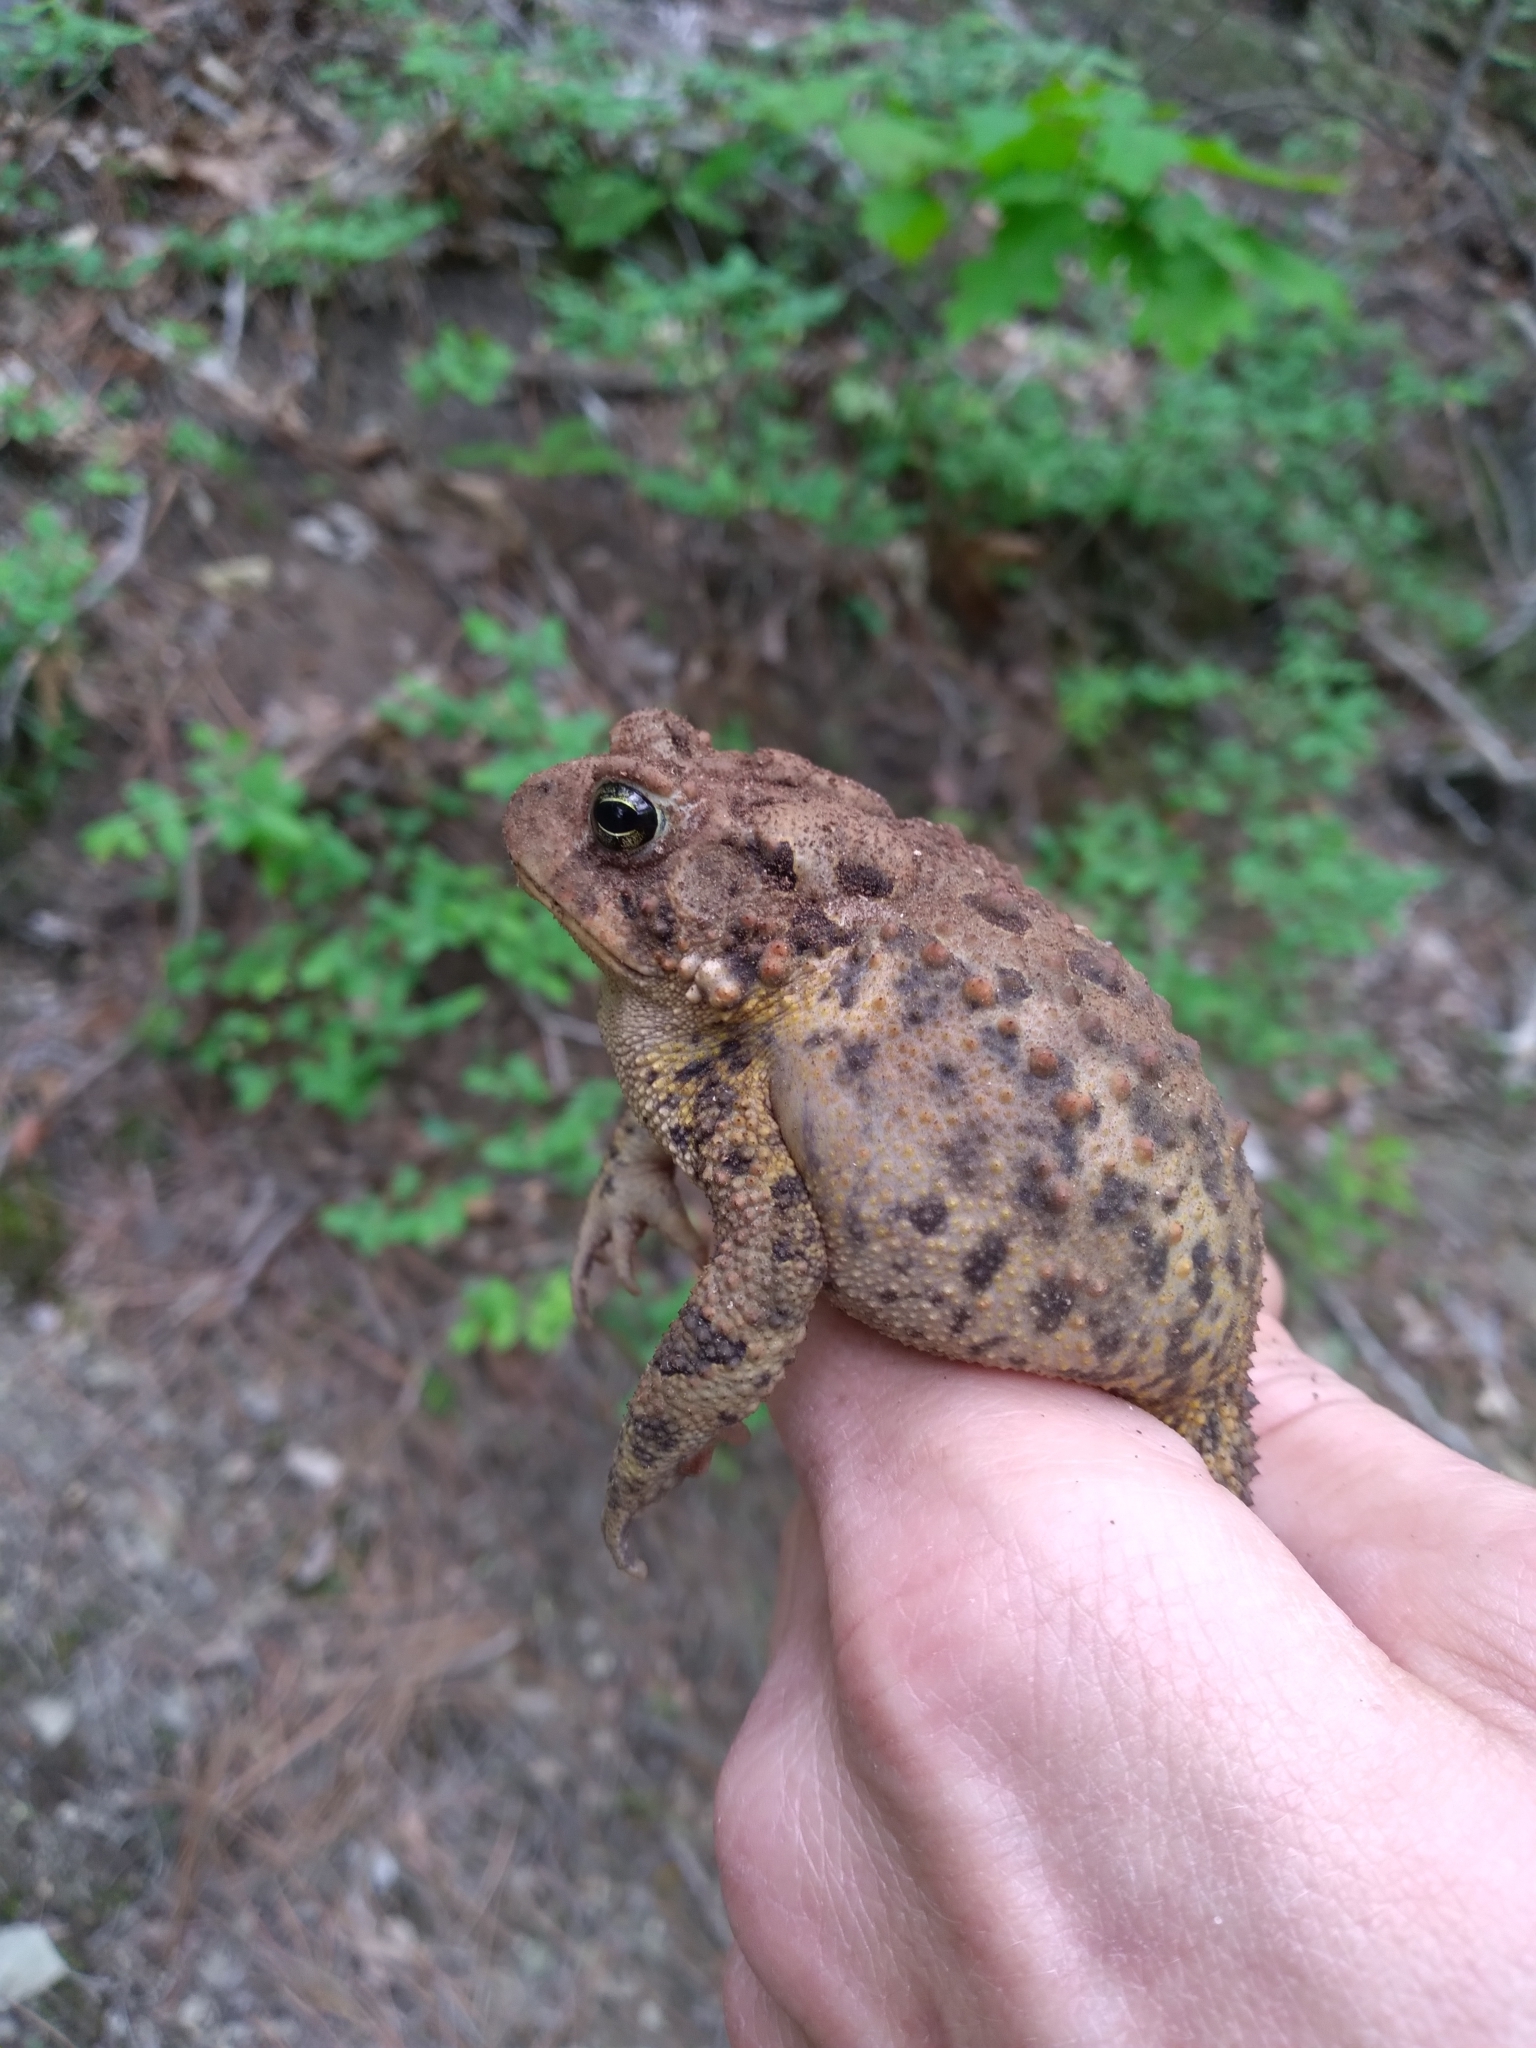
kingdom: Animalia
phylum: Chordata
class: Amphibia
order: Anura
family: Bufonidae
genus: Anaxyrus
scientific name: Anaxyrus americanus
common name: American toad
